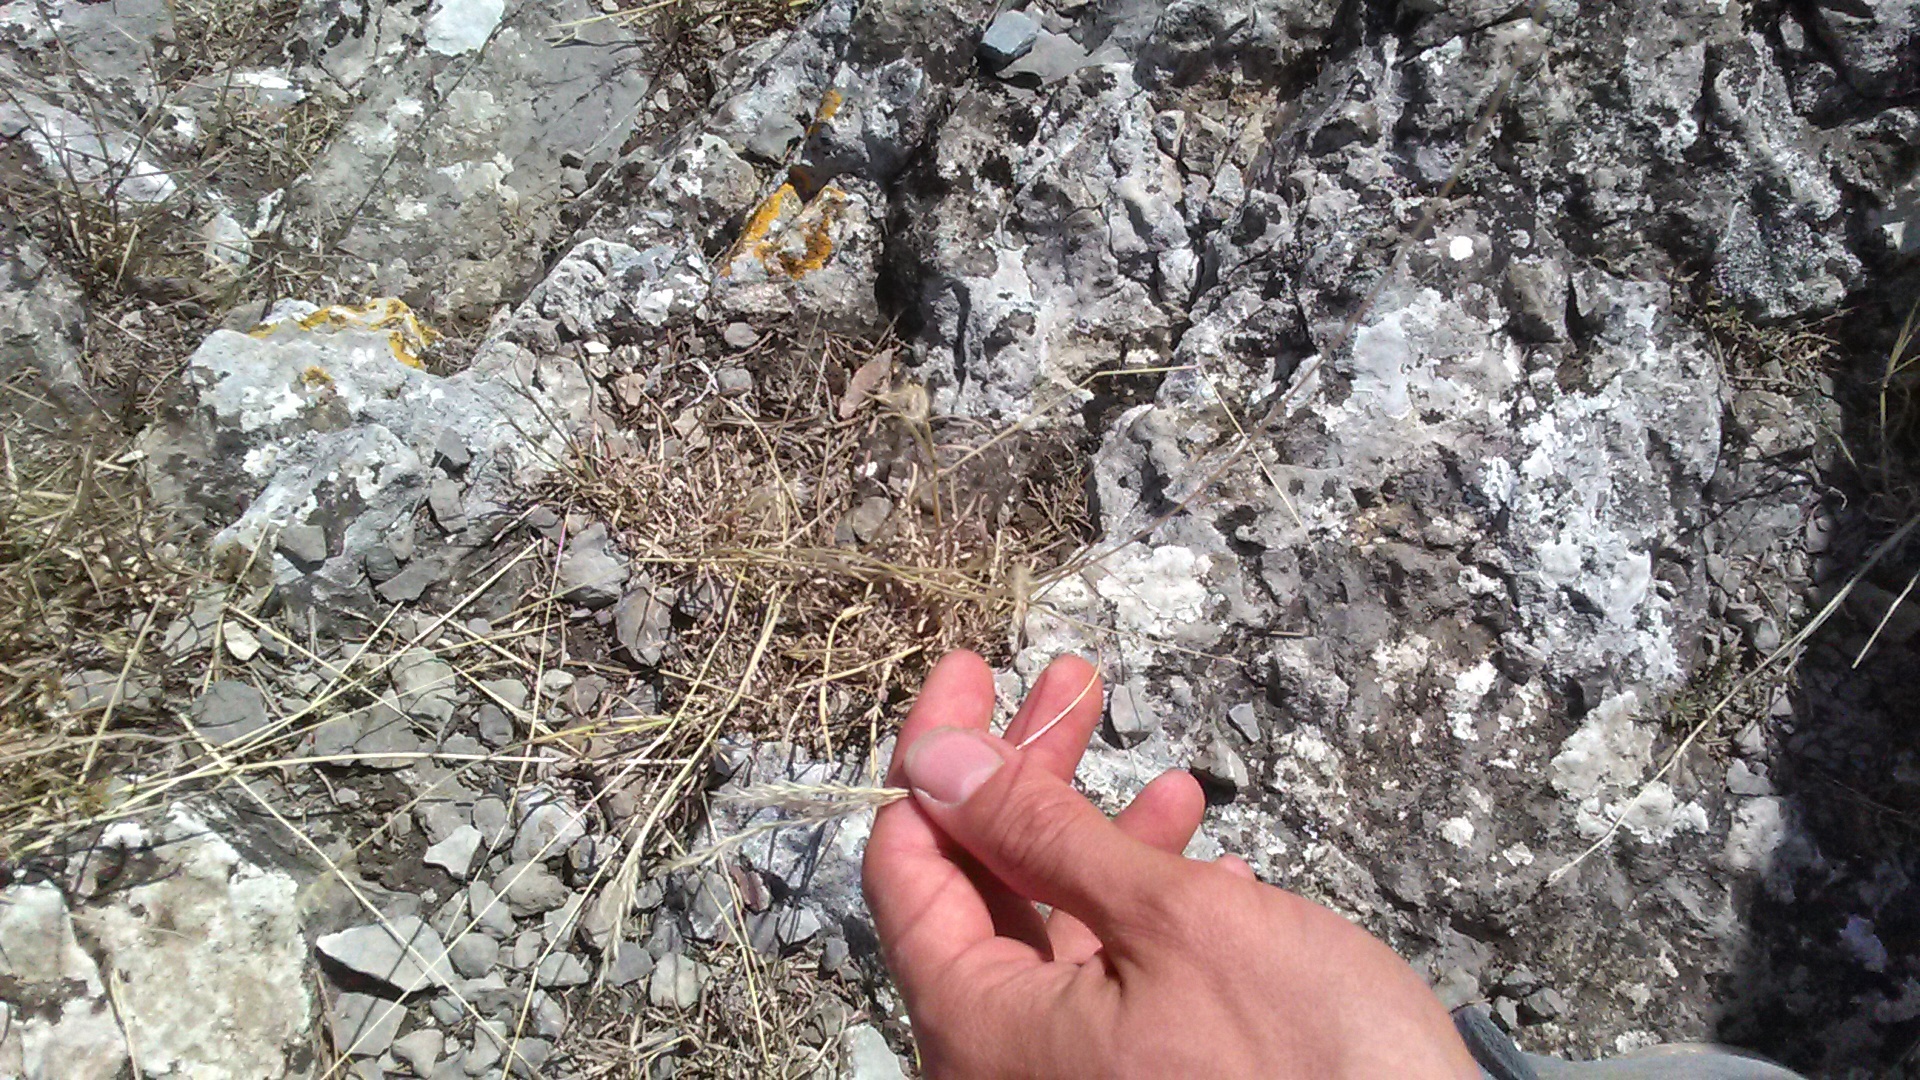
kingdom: Plantae
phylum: Tracheophyta
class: Liliopsida
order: Poales
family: Poaceae
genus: Bothriochloa
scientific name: Bothriochloa ischaemum
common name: Yellow bluestem
